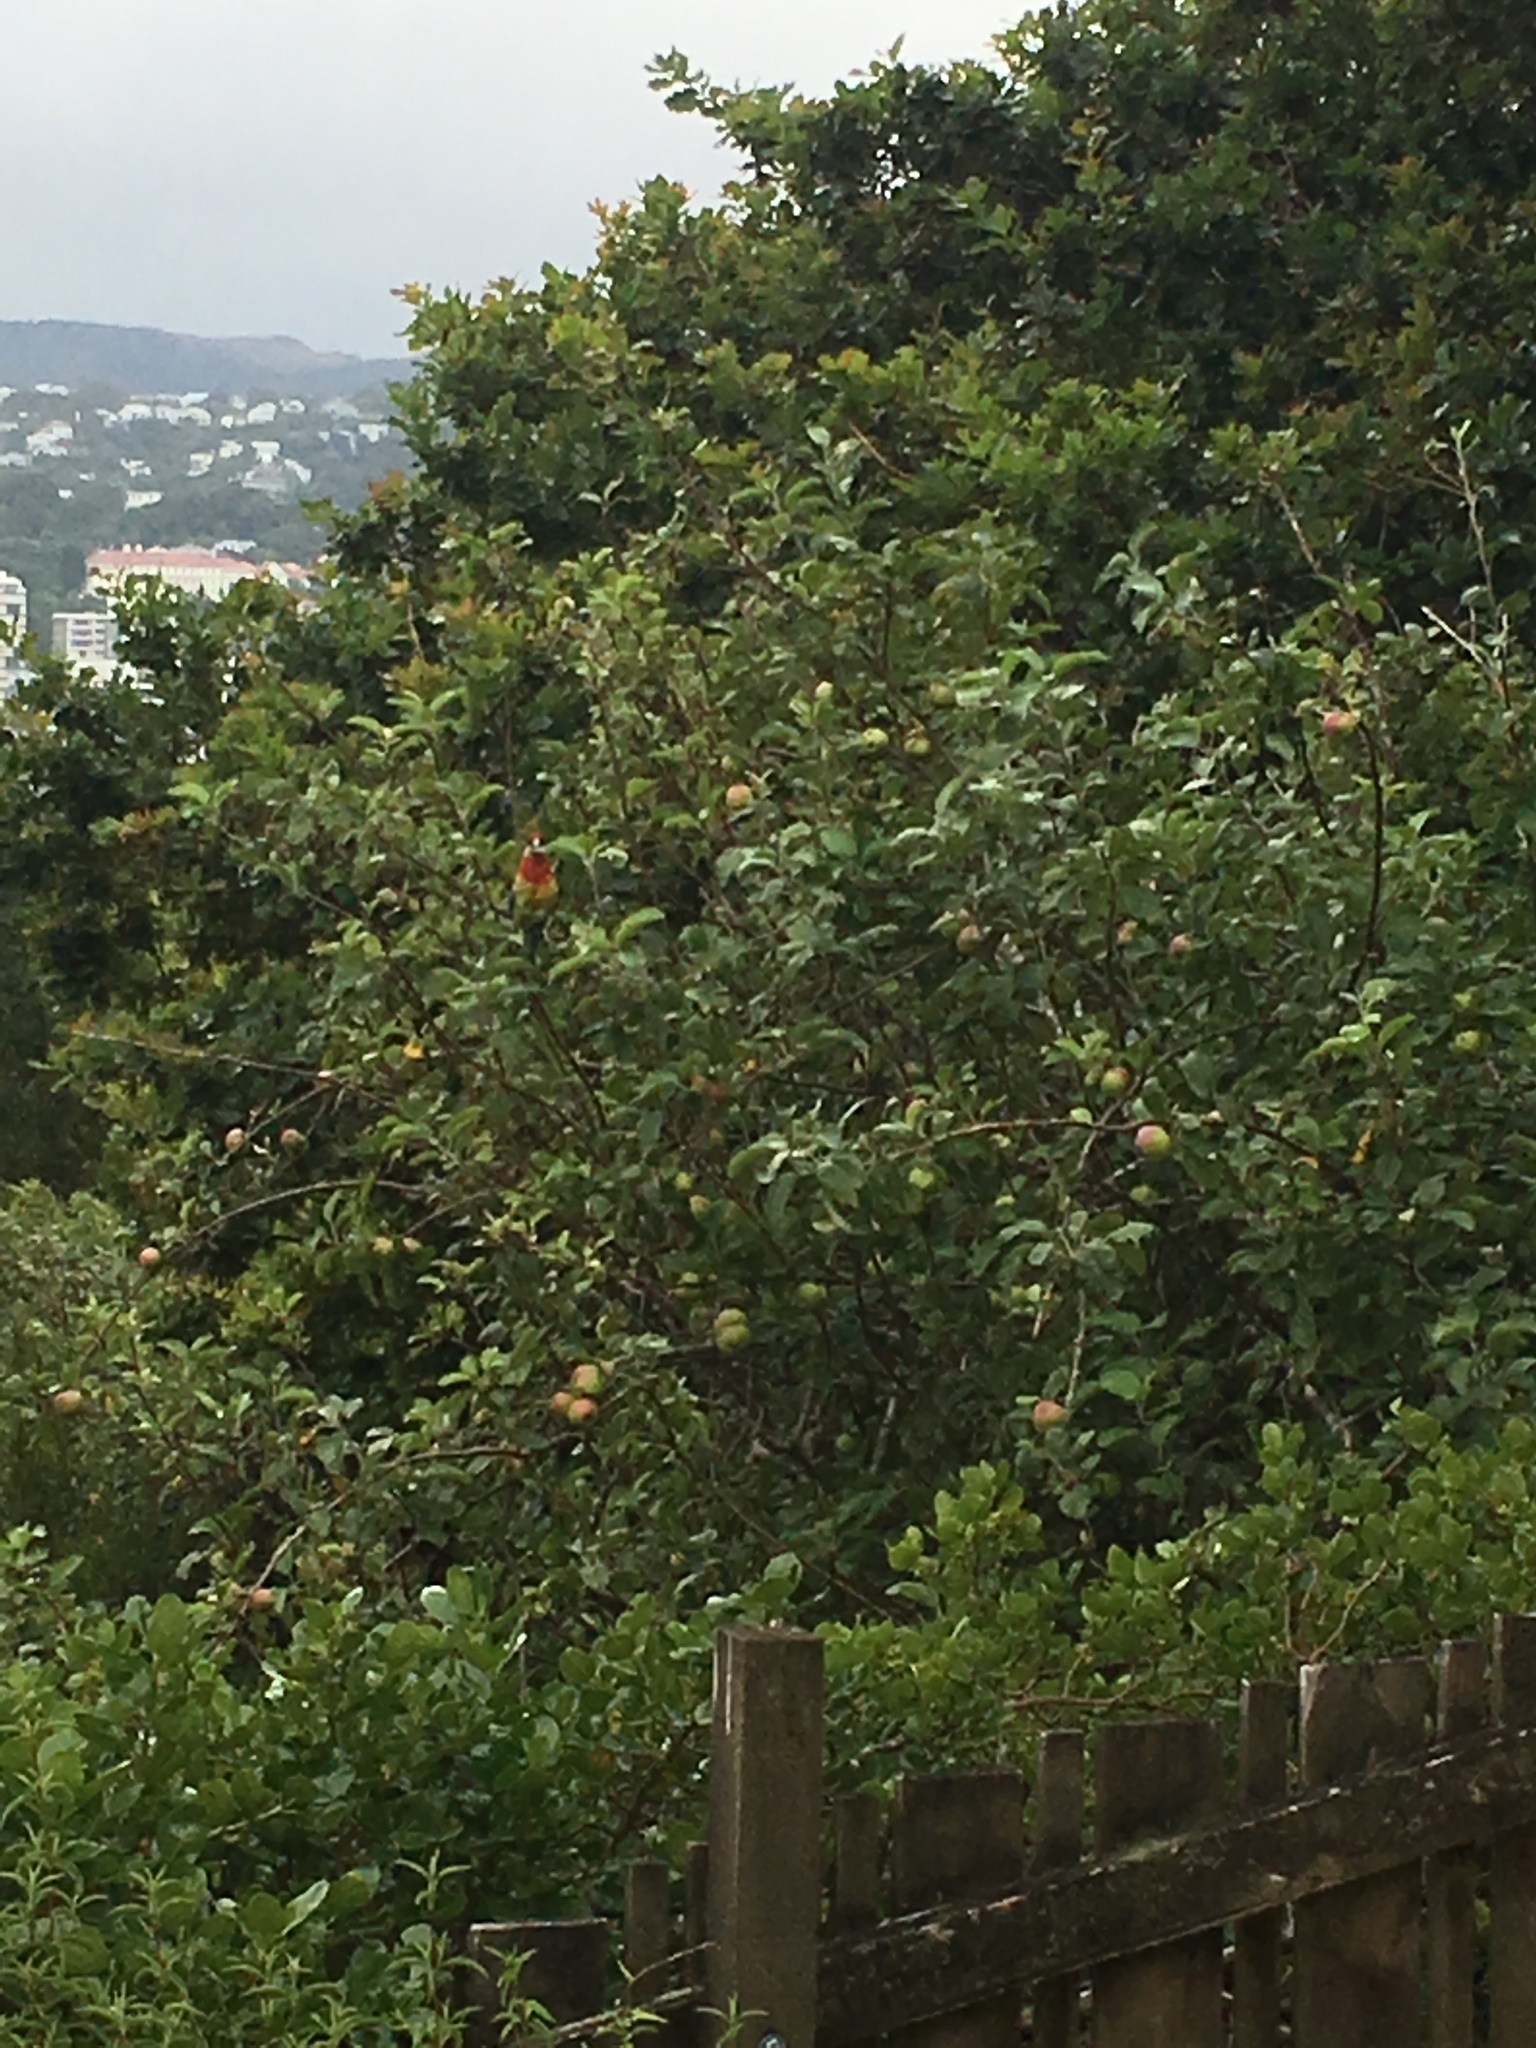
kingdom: Animalia
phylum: Chordata
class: Aves
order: Psittaciformes
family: Psittacidae
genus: Platycercus
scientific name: Platycercus eximius
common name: Eastern rosella
